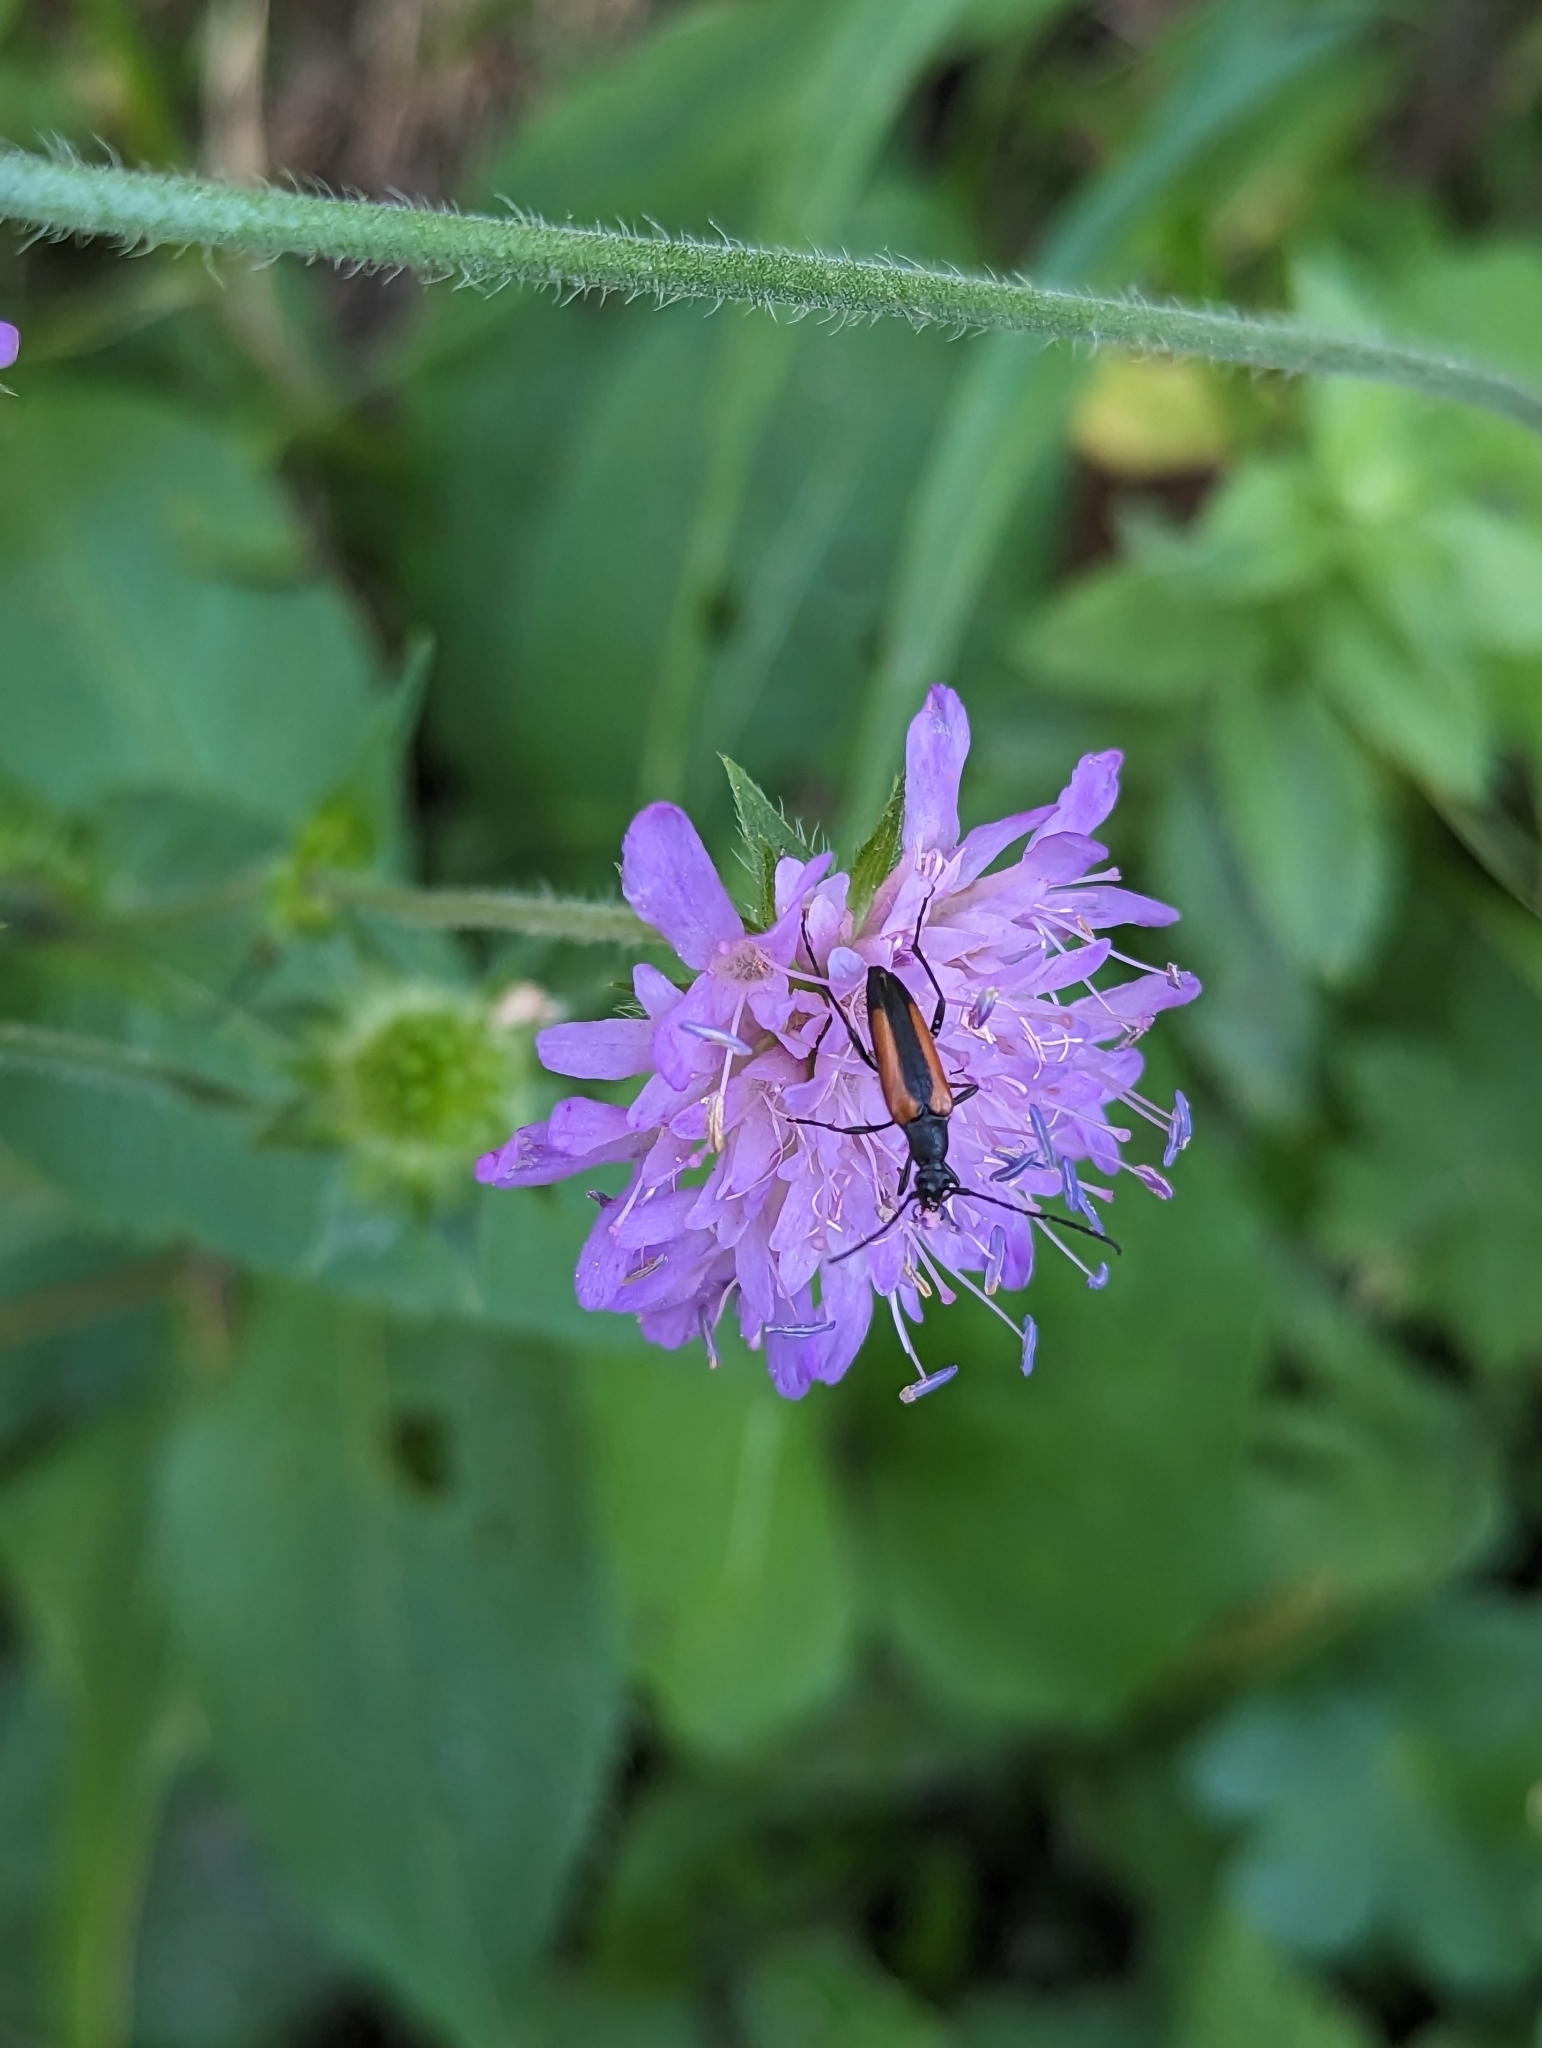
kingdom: Animalia
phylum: Arthropoda
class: Insecta
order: Coleoptera
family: Cerambycidae
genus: Stenurella
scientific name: Stenurella melanura
